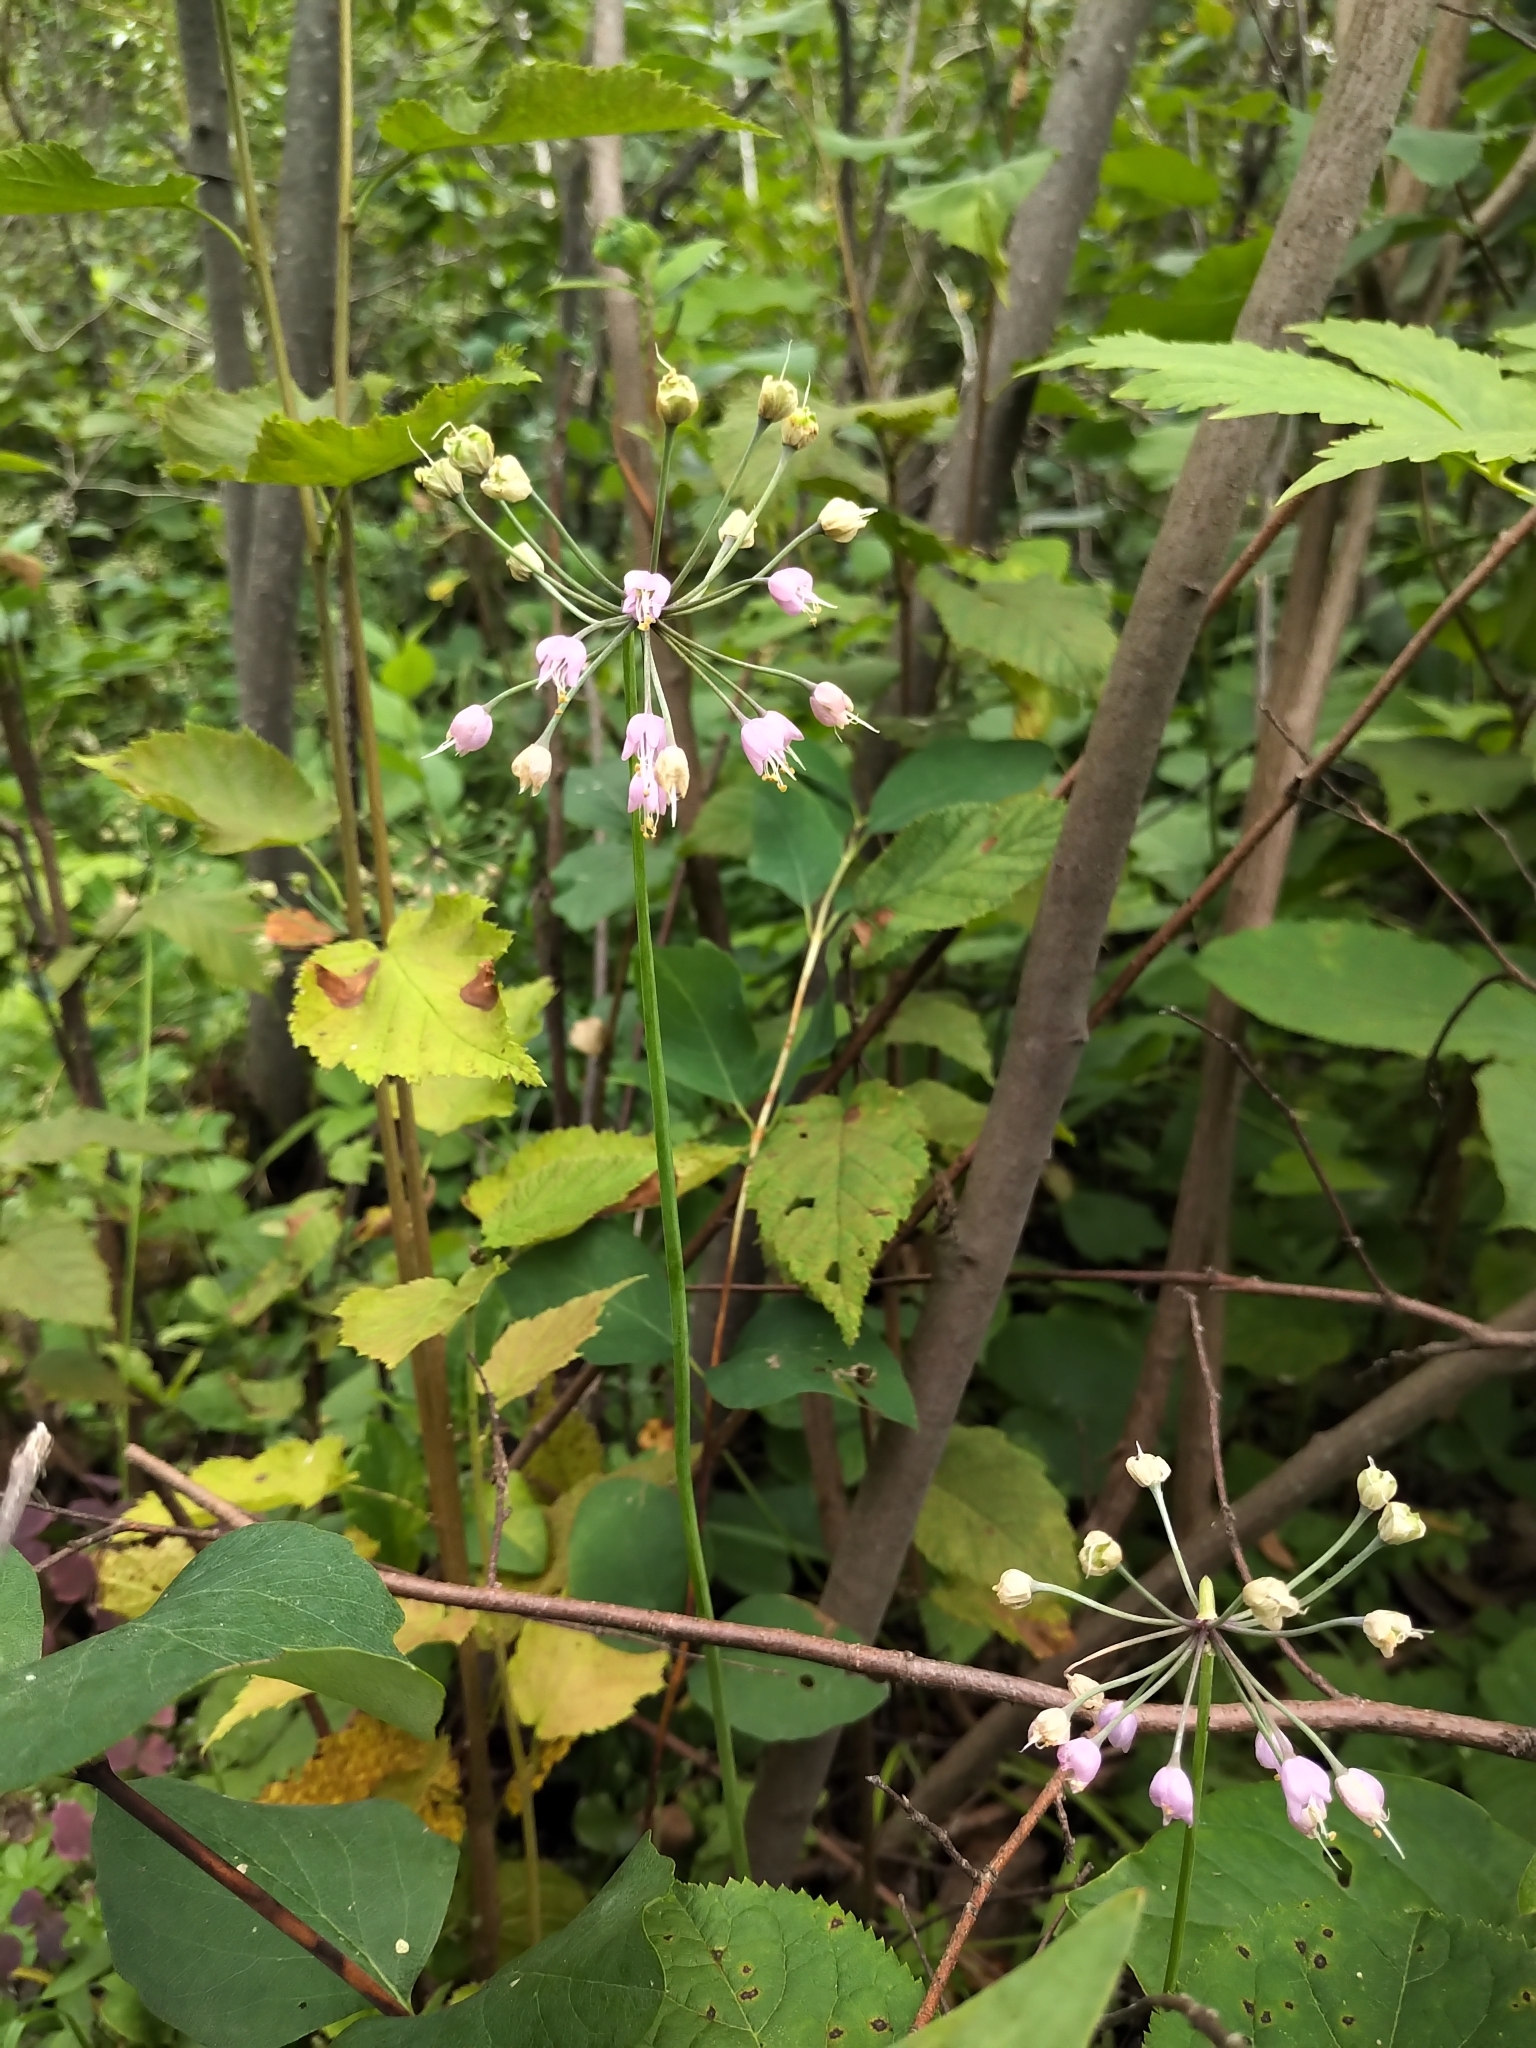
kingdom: Plantae
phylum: Tracheophyta
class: Liliopsida
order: Asparagales
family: Amaryllidaceae
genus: Allium
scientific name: Allium cernuum
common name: Nodding onion
